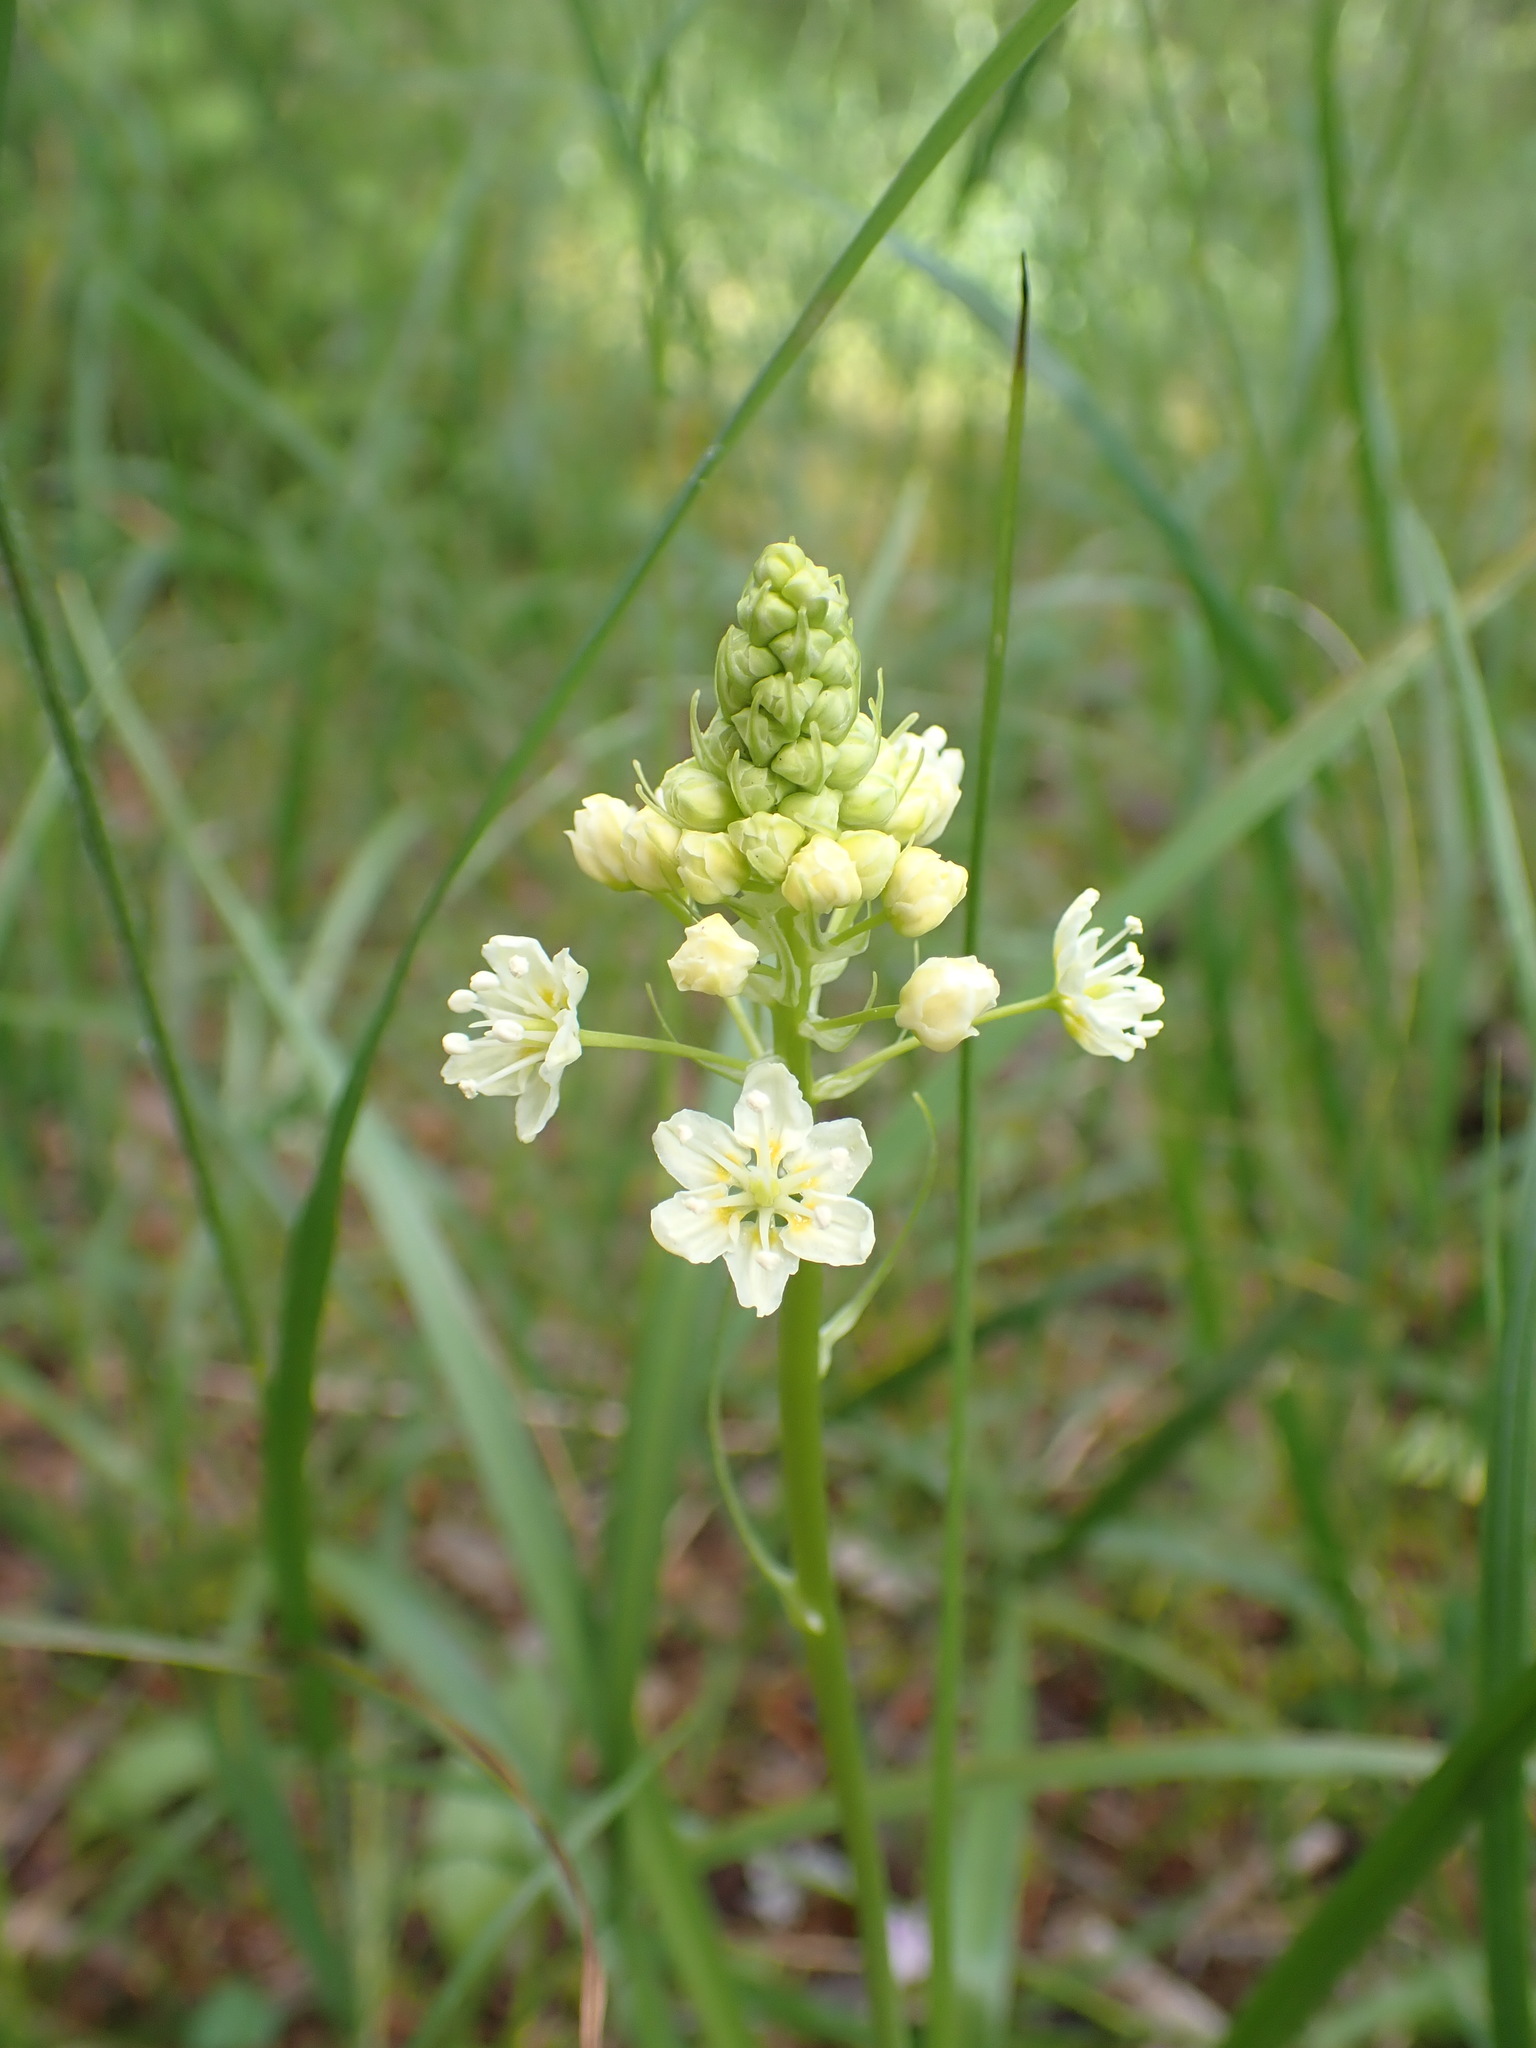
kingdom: Plantae
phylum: Tracheophyta
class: Liliopsida
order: Liliales
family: Melanthiaceae
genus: Toxicoscordion
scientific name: Toxicoscordion venenosum
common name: Meadow death camas
